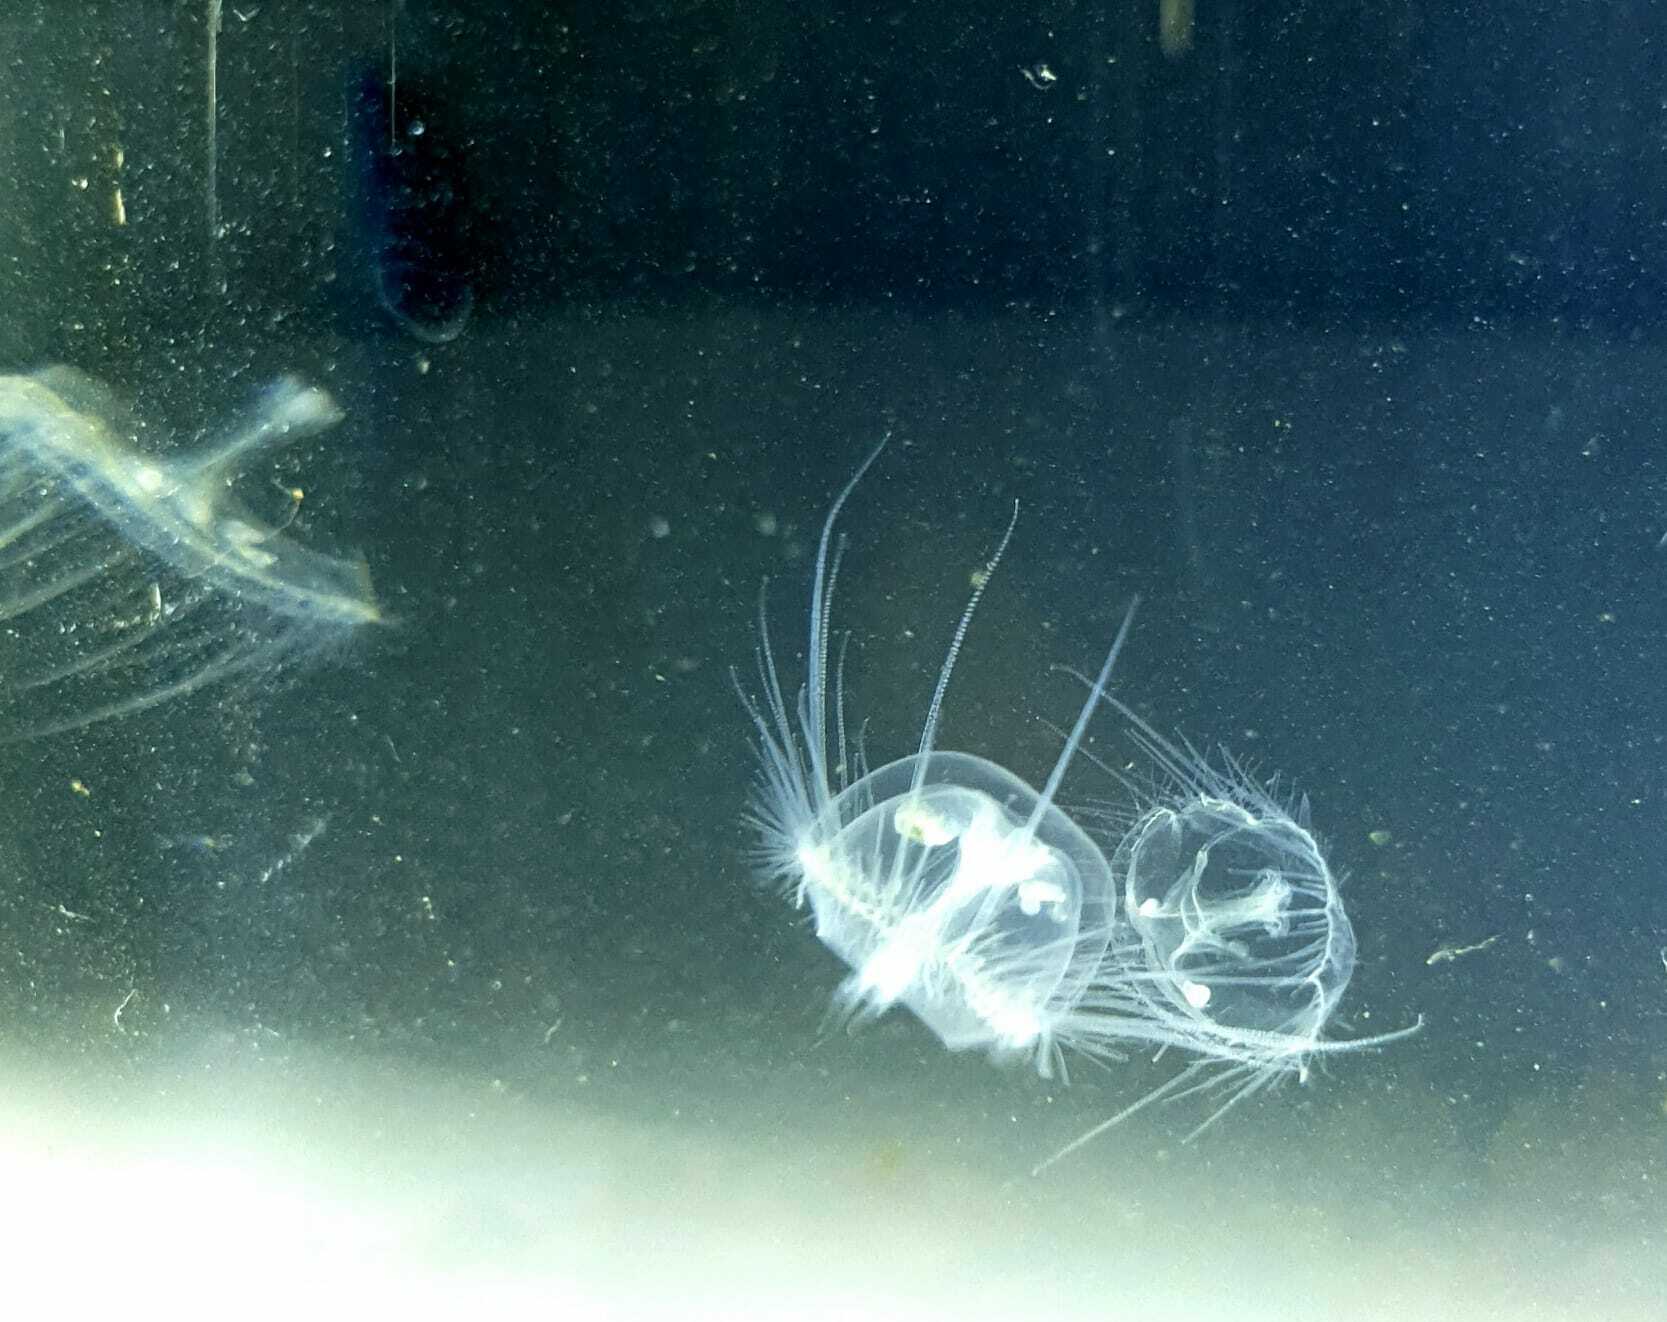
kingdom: Animalia
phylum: Cnidaria
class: Hydrozoa
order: Limnomedusae
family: Olindiidae
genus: Craspedacusta
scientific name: Craspedacusta sowerbii
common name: Freshwater jellyfish
